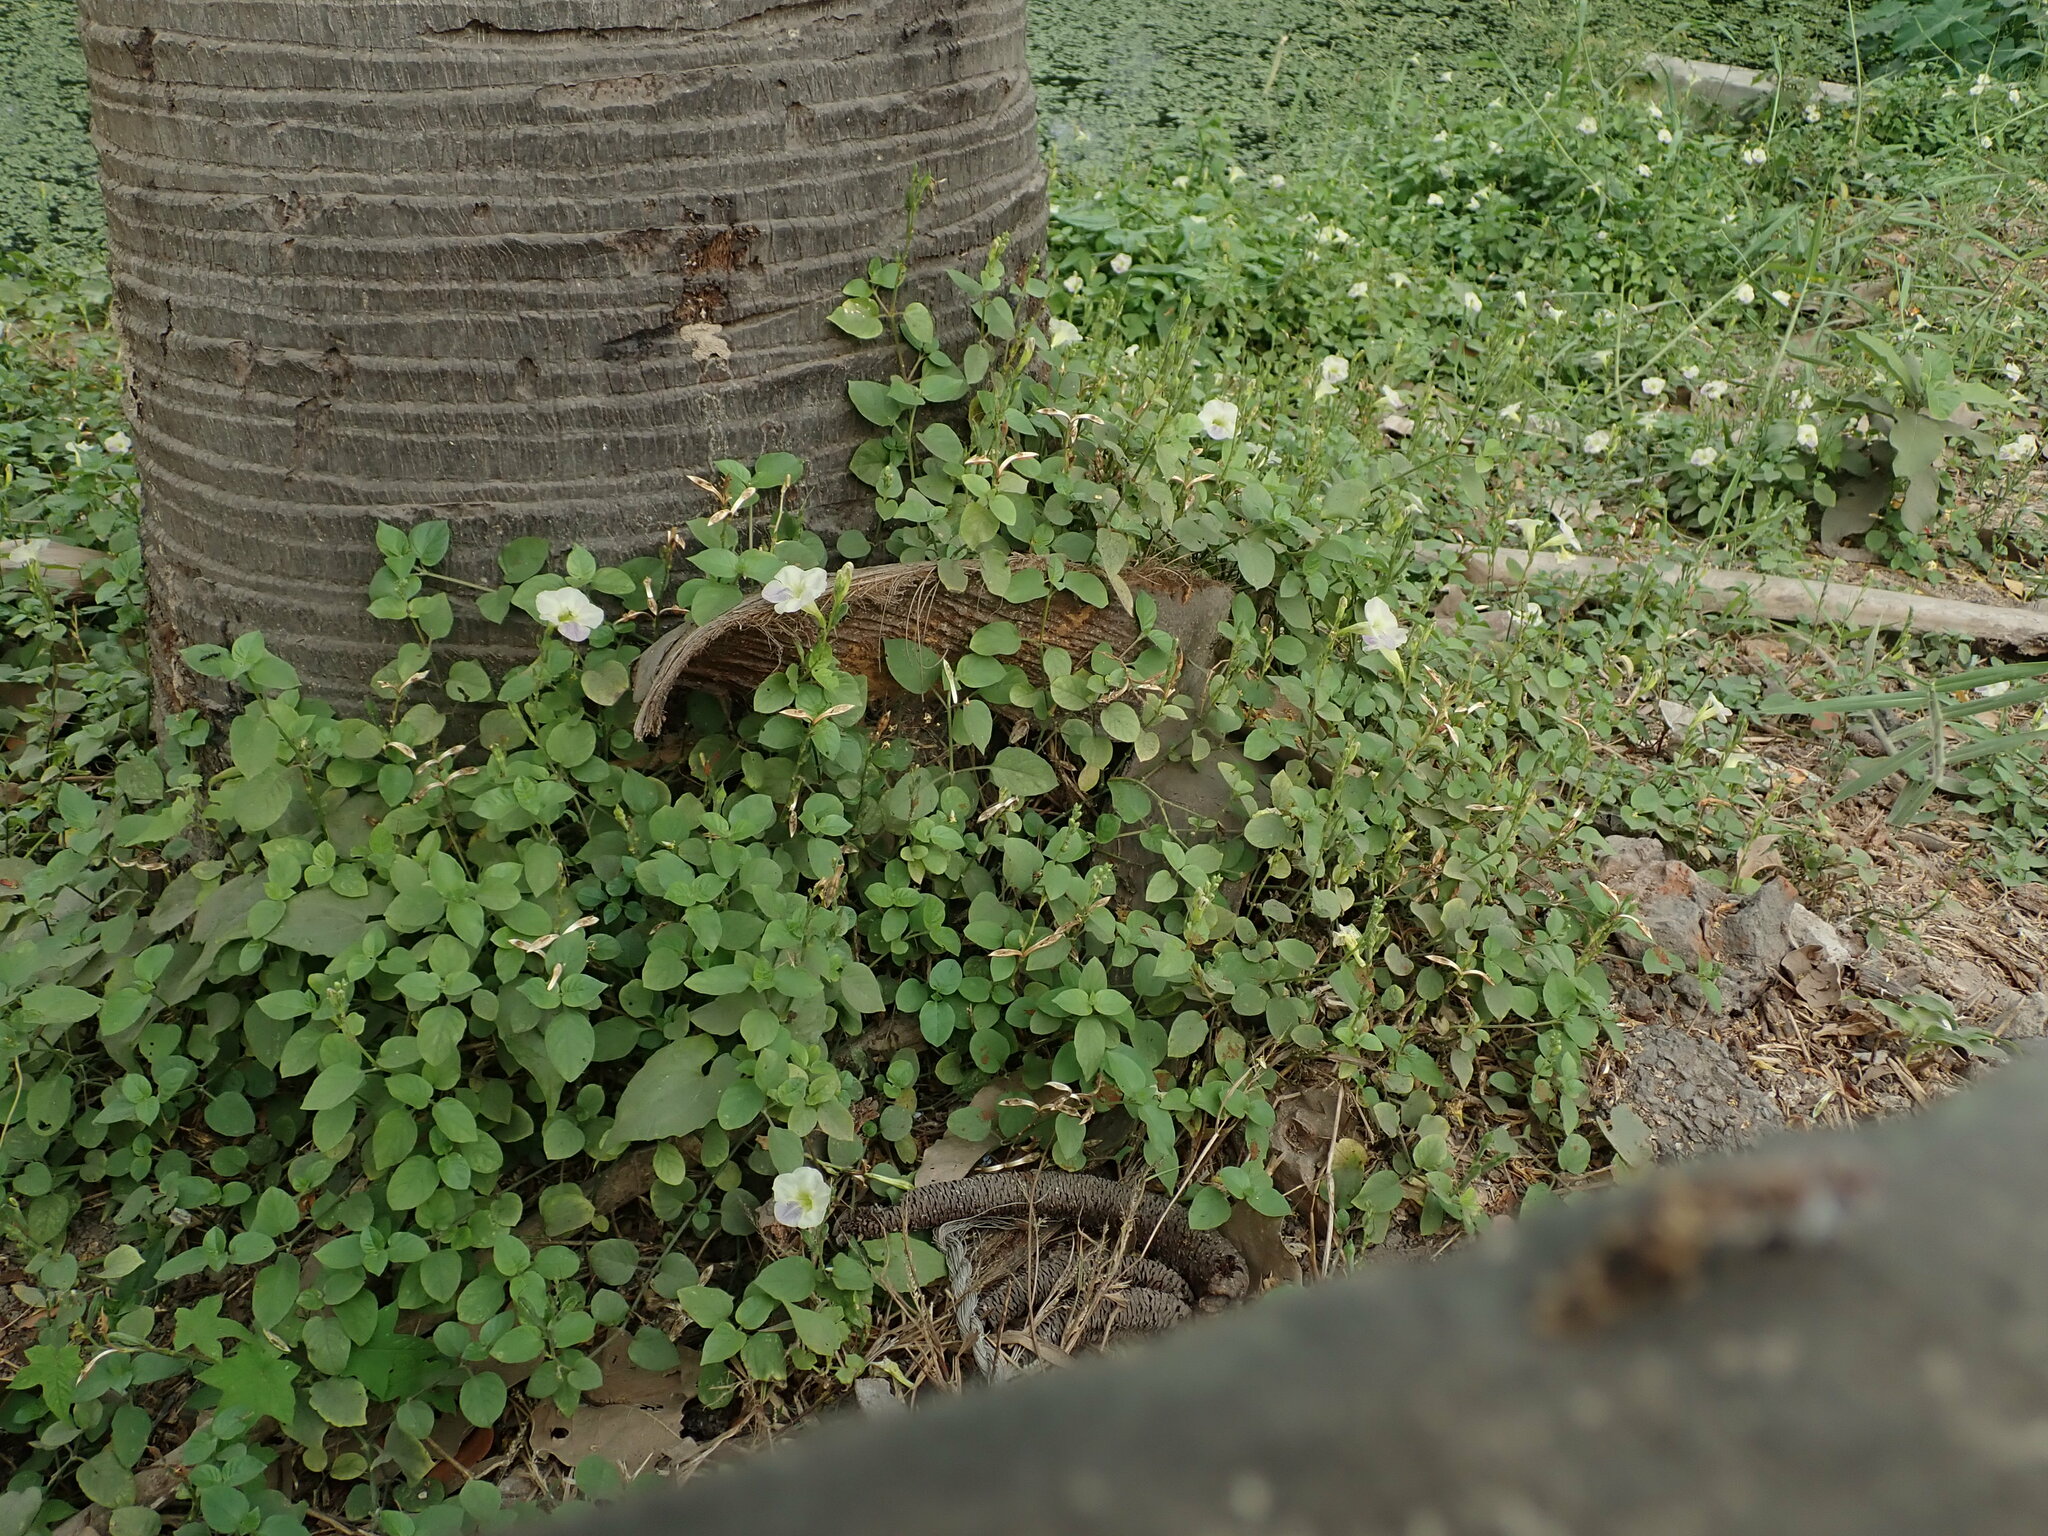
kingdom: Plantae
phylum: Tracheophyta
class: Magnoliopsida
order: Lamiales
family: Acanthaceae
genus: Asystasia
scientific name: Asystasia gangetica
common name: Chinese violet
